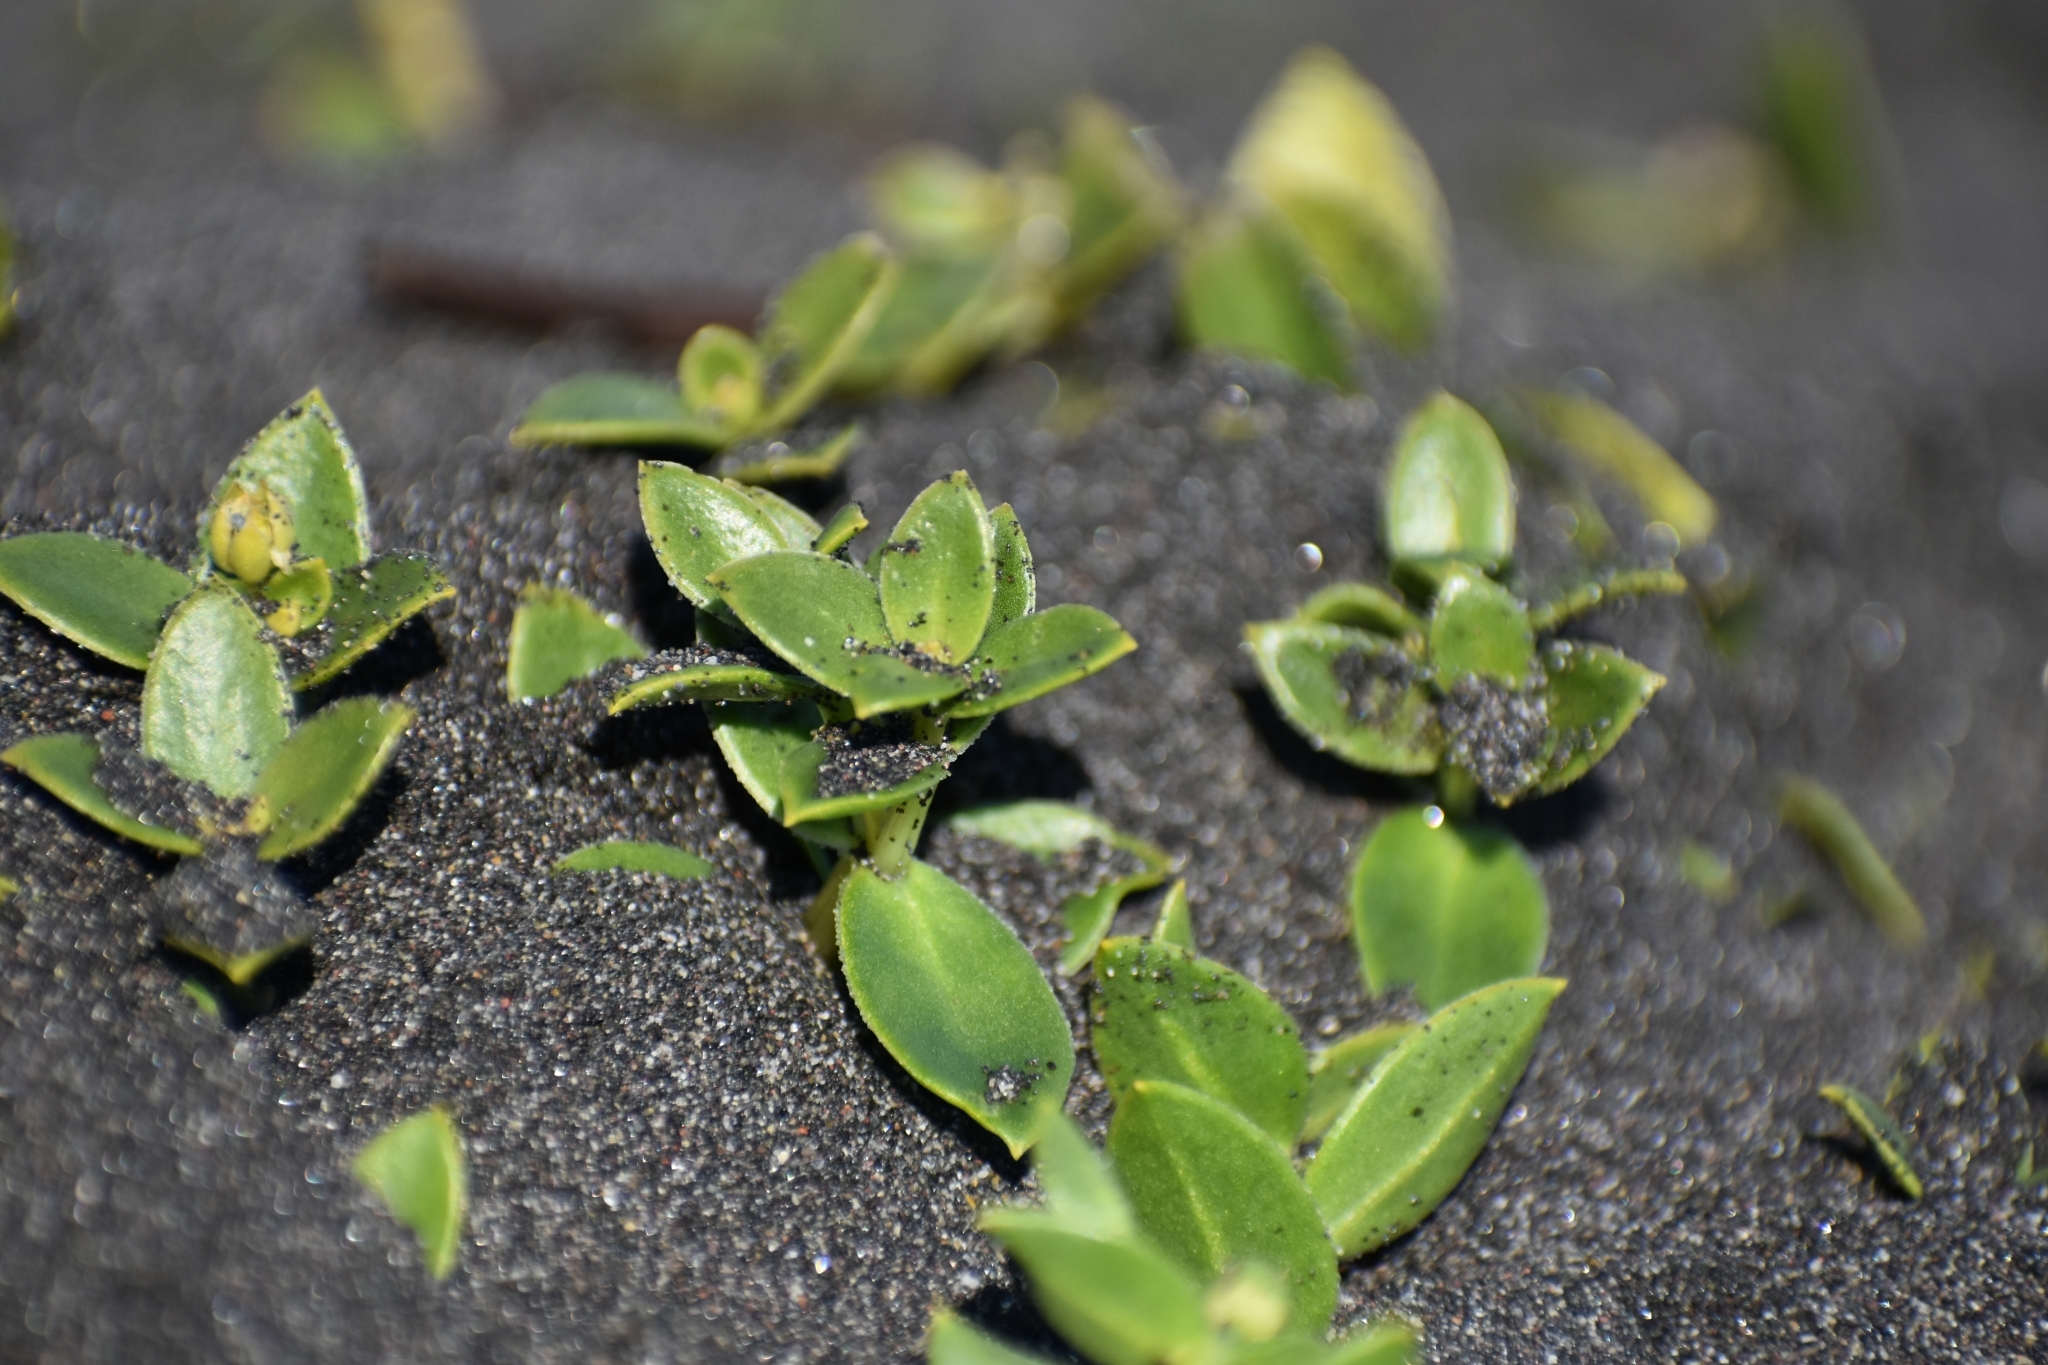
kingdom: Plantae
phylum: Tracheophyta
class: Magnoliopsida
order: Caryophyllales
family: Caryophyllaceae
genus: Honckenya
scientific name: Honckenya peploides
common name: Sea sandwort
